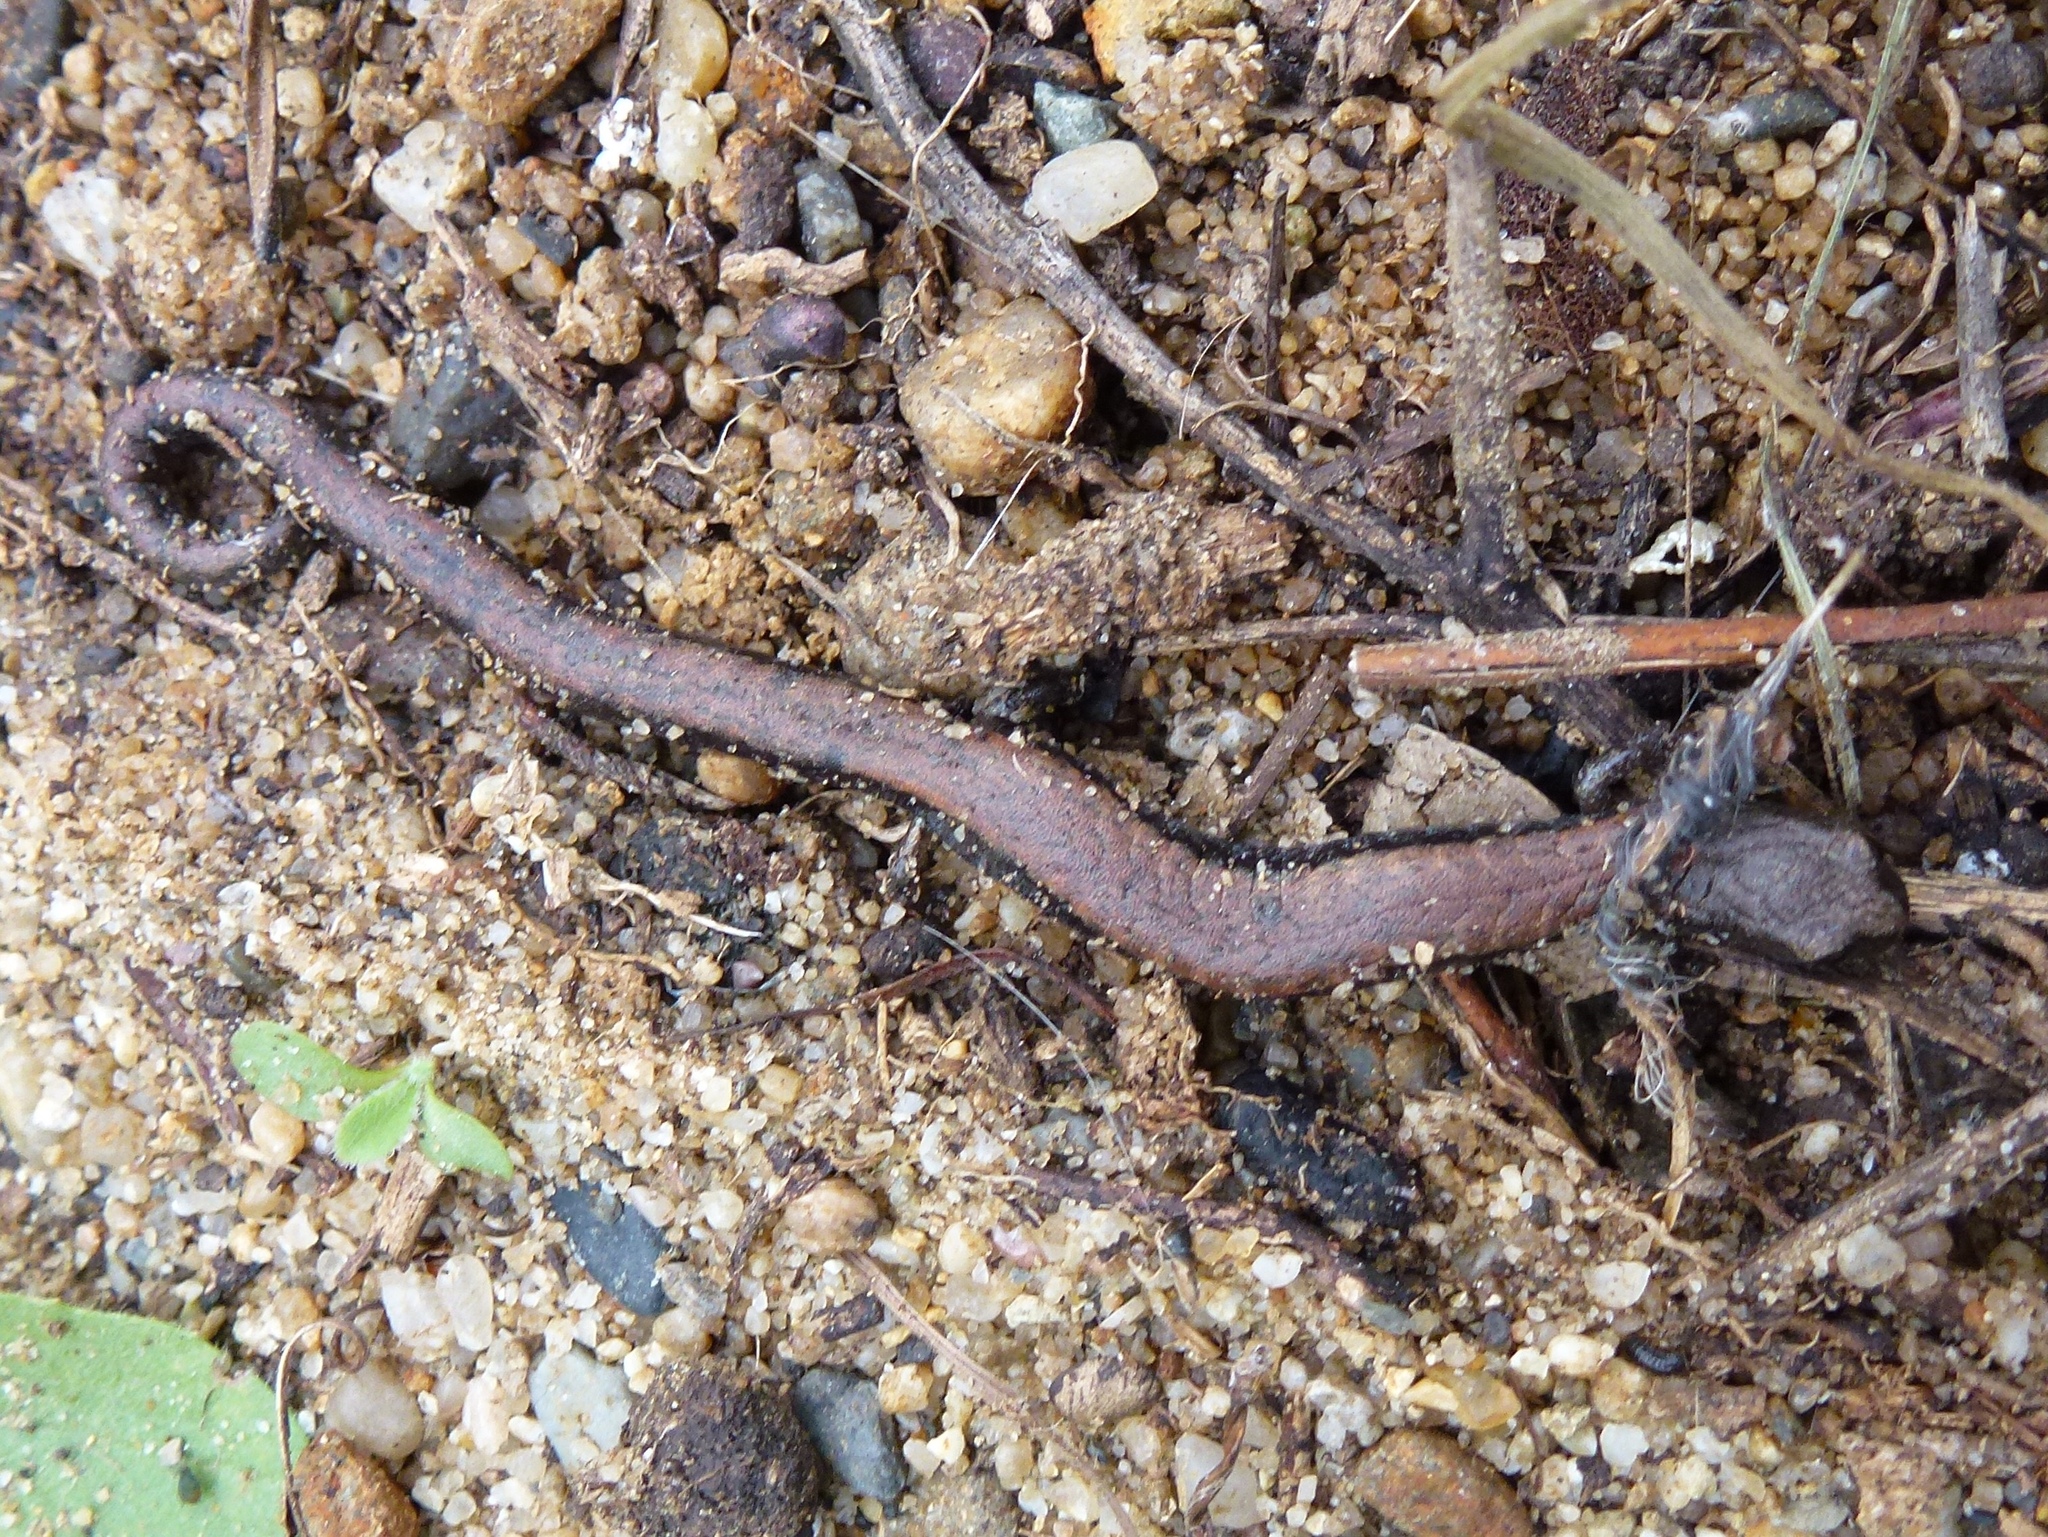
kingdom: Animalia
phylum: Chordata
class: Amphibia
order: Caudata
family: Plethodontidae
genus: Batrachoseps
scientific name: Batrachoseps nigriventris
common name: Black-bellied slender salamander
